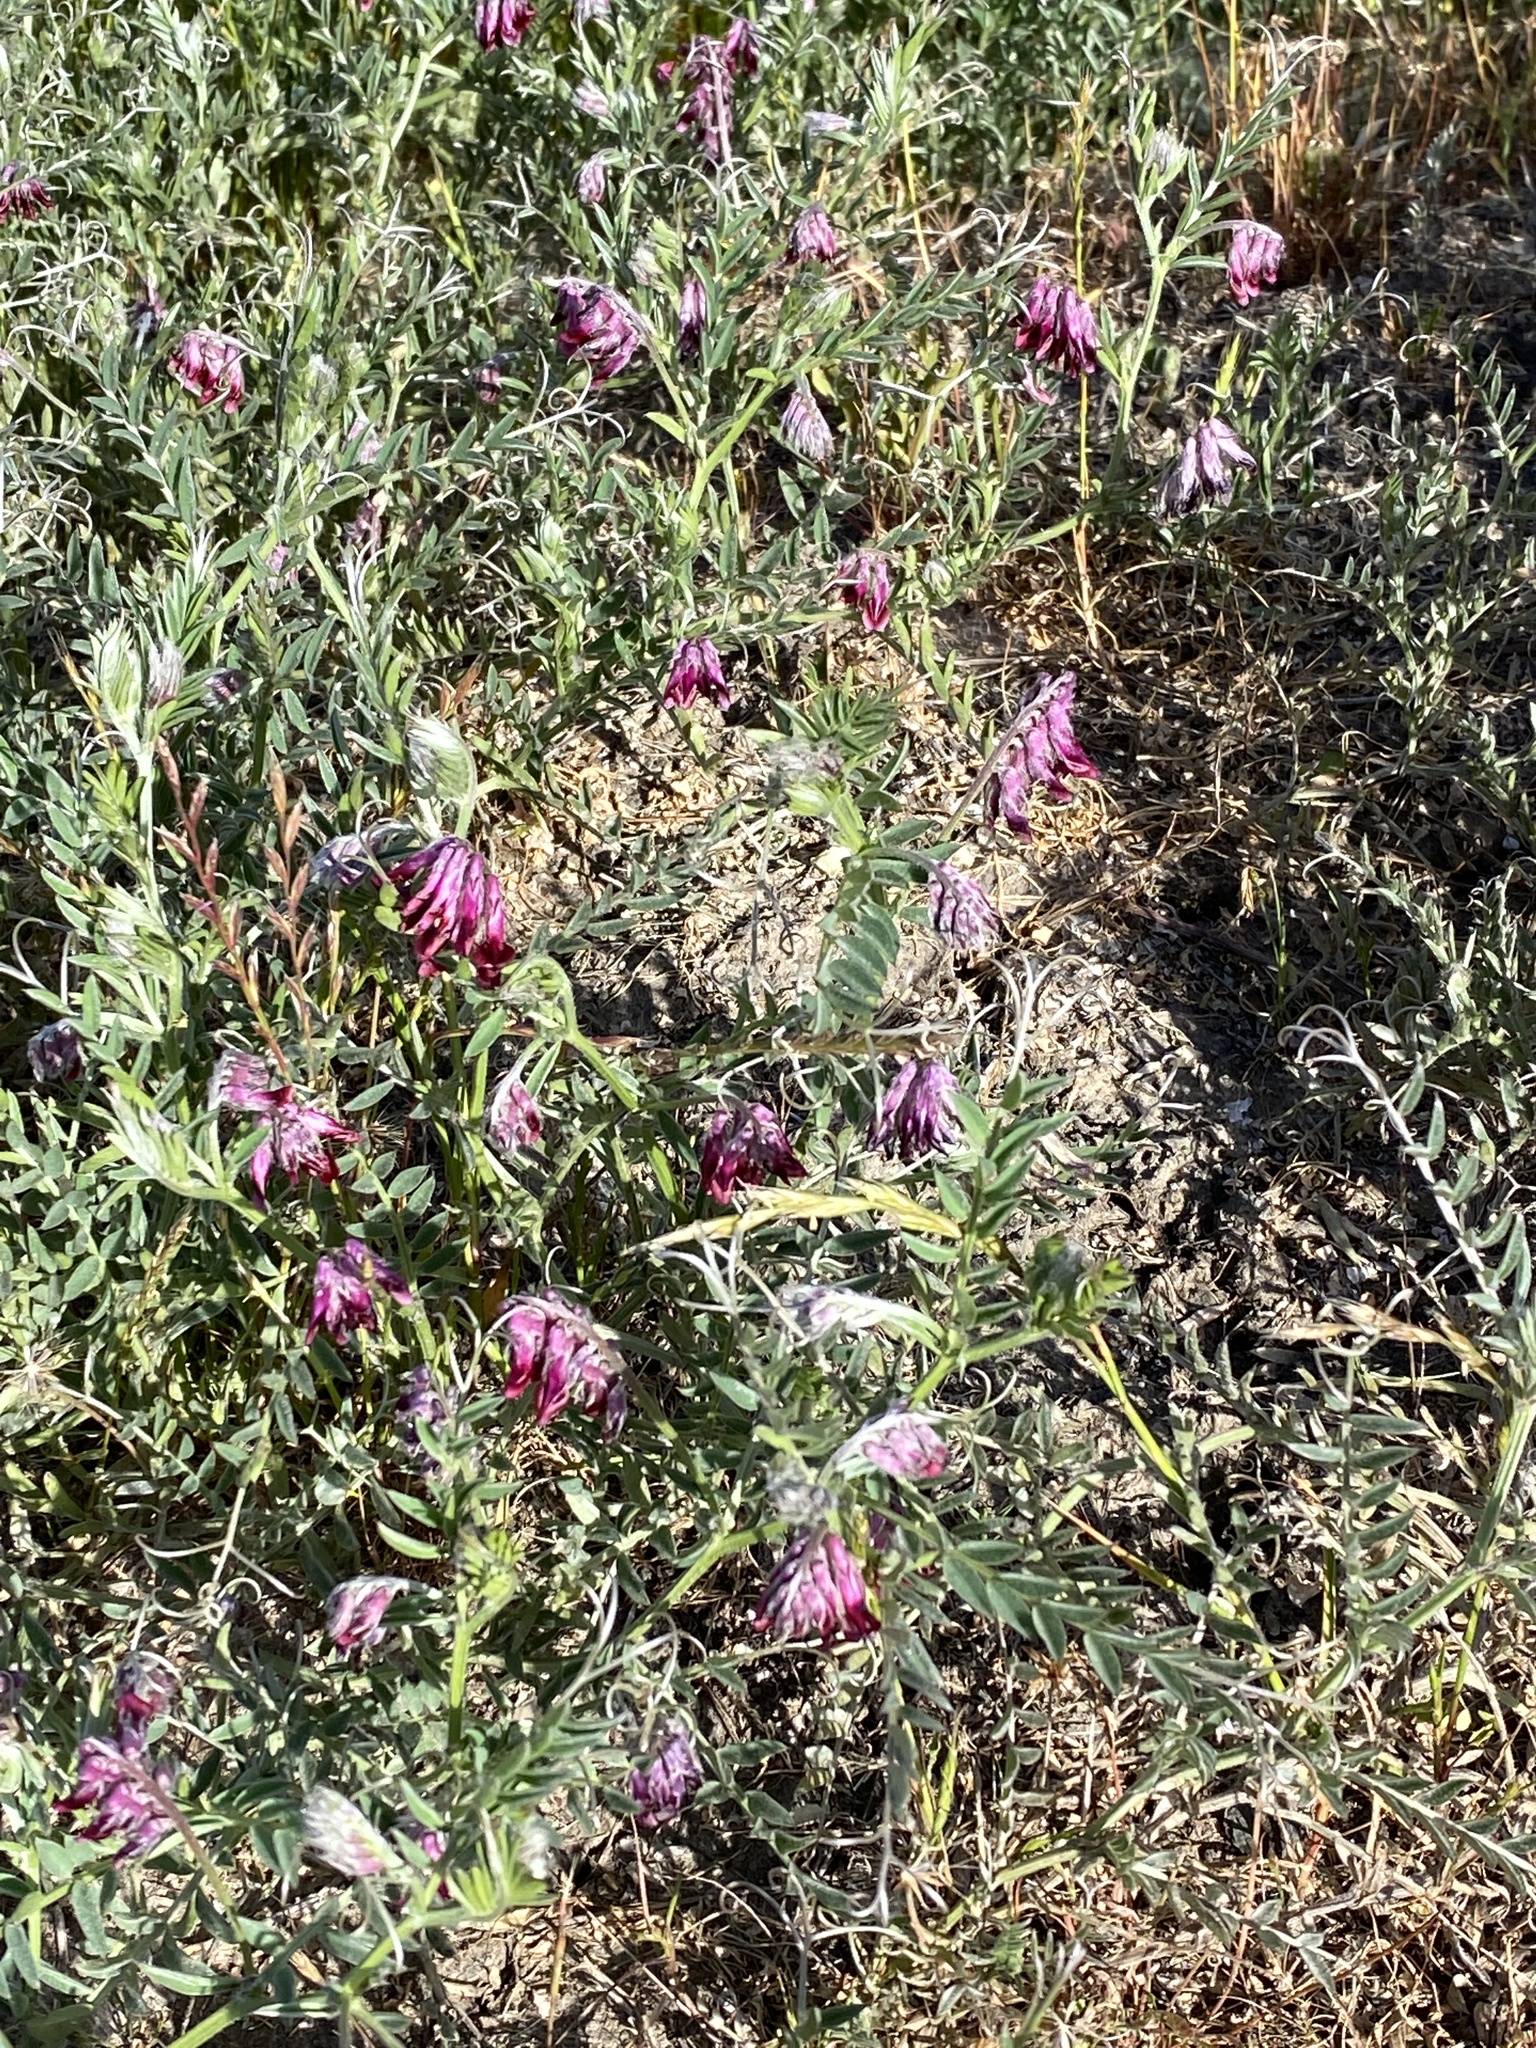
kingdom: Plantae
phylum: Tracheophyta
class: Magnoliopsida
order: Fabales
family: Fabaceae
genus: Vicia
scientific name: Vicia benghalensis
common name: Purple vetch
